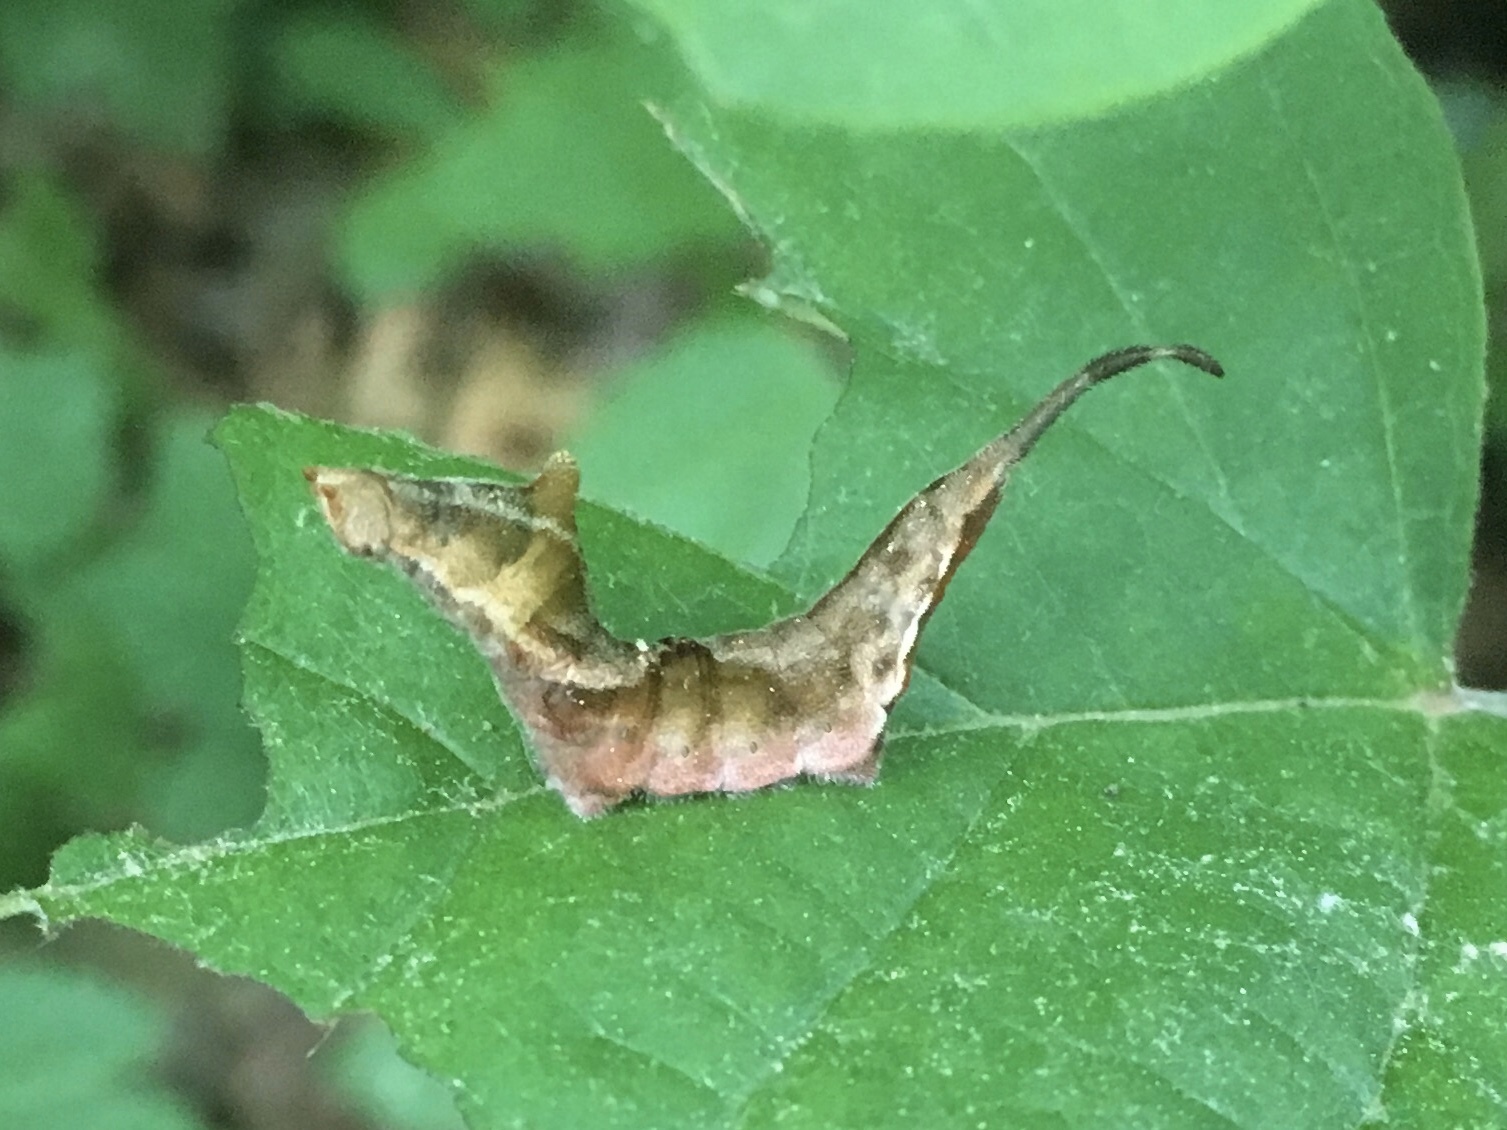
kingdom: Animalia
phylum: Arthropoda
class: Insecta
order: Lepidoptera
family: Drepanidae
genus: Oreta
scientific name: Oreta rosea
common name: Rose hooktip
